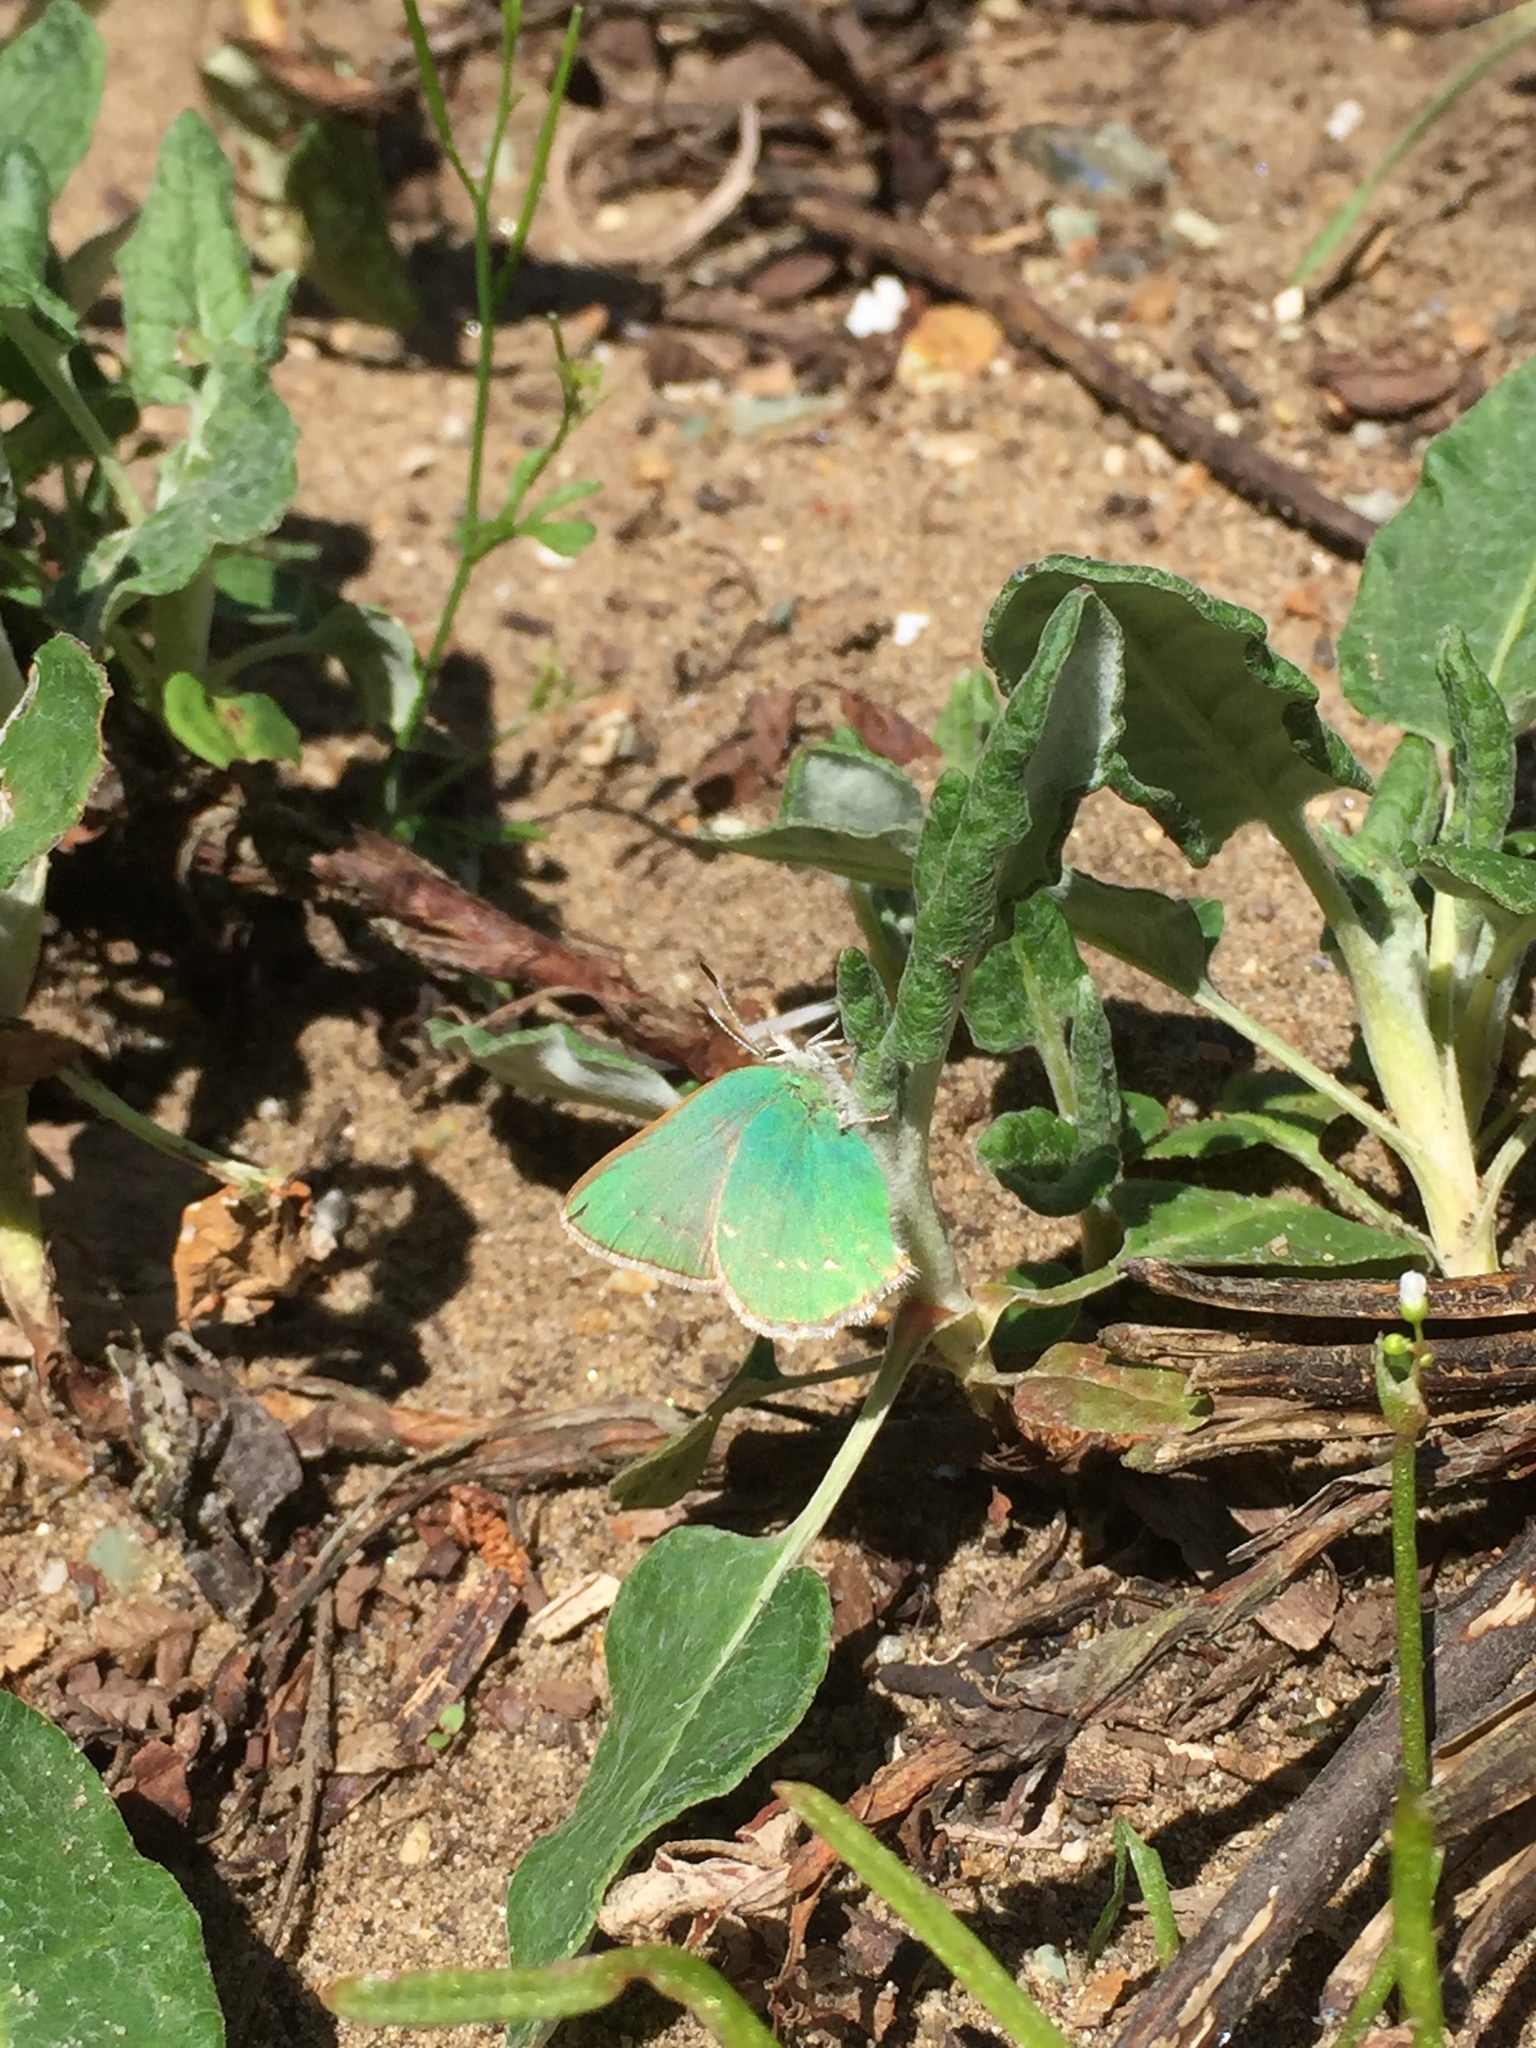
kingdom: Animalia
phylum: Arthropoda
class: Insecta
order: Lepidoptera
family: Lycaenidae
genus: Callophrys
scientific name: Callophrys viridis
